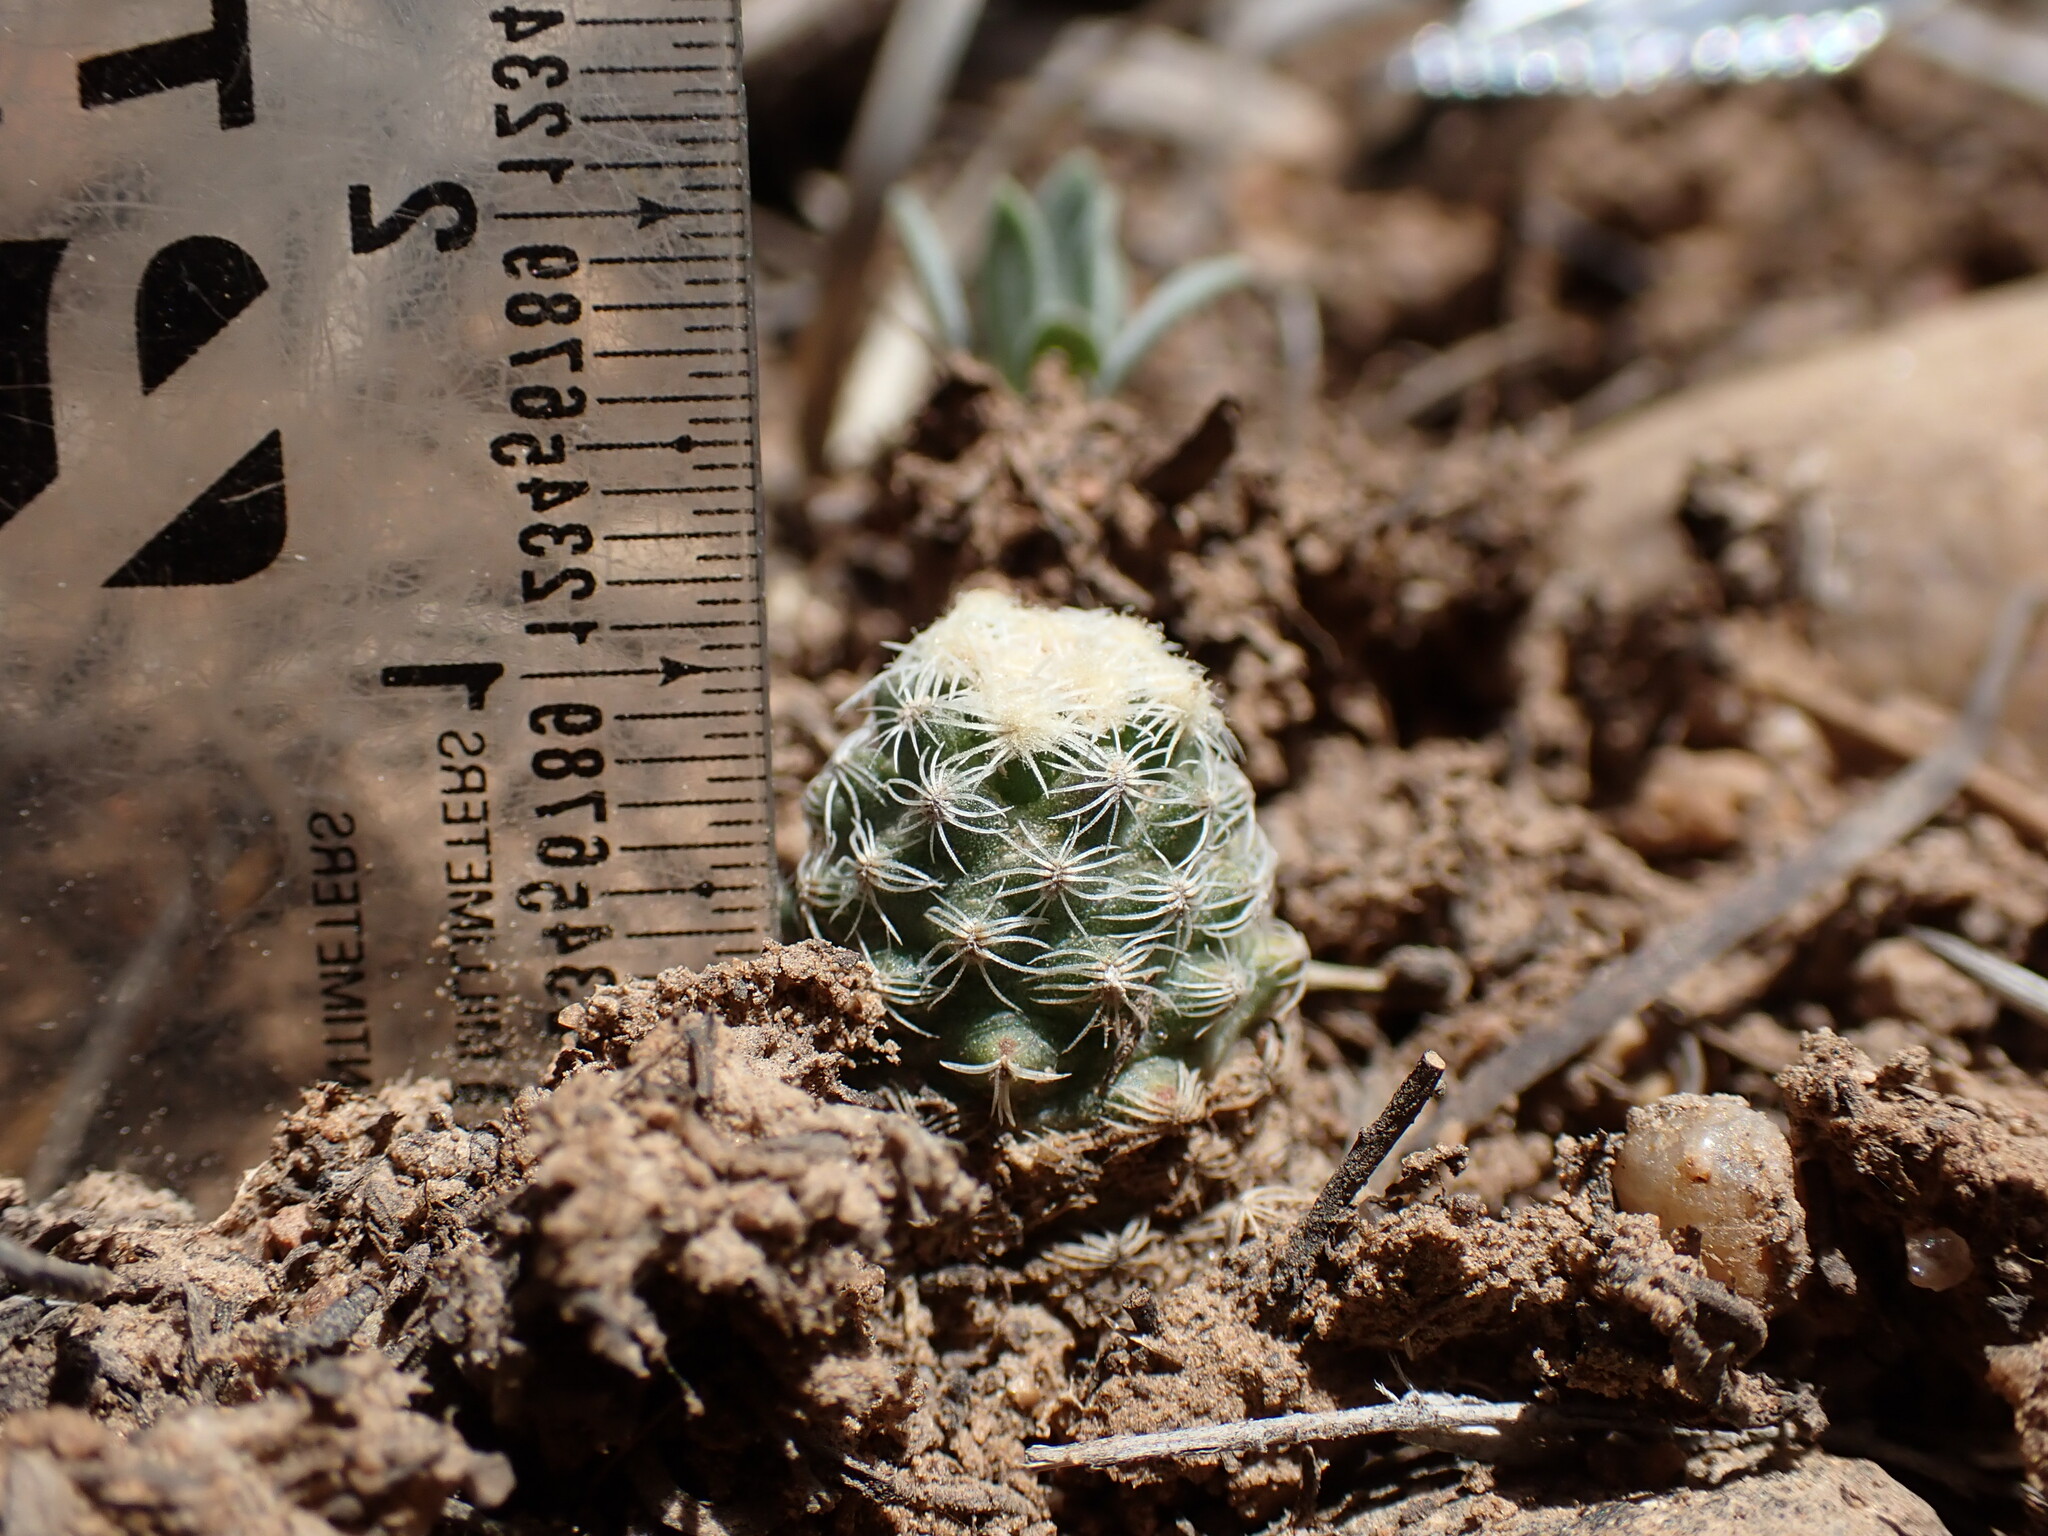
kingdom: Plantae
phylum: Tracheophyta
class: Magnoliopsida
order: Caryophyllales
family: Cactaceae
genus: Pediocactus
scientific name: Pediocactus knowltonii
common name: Knowlton's cactus
